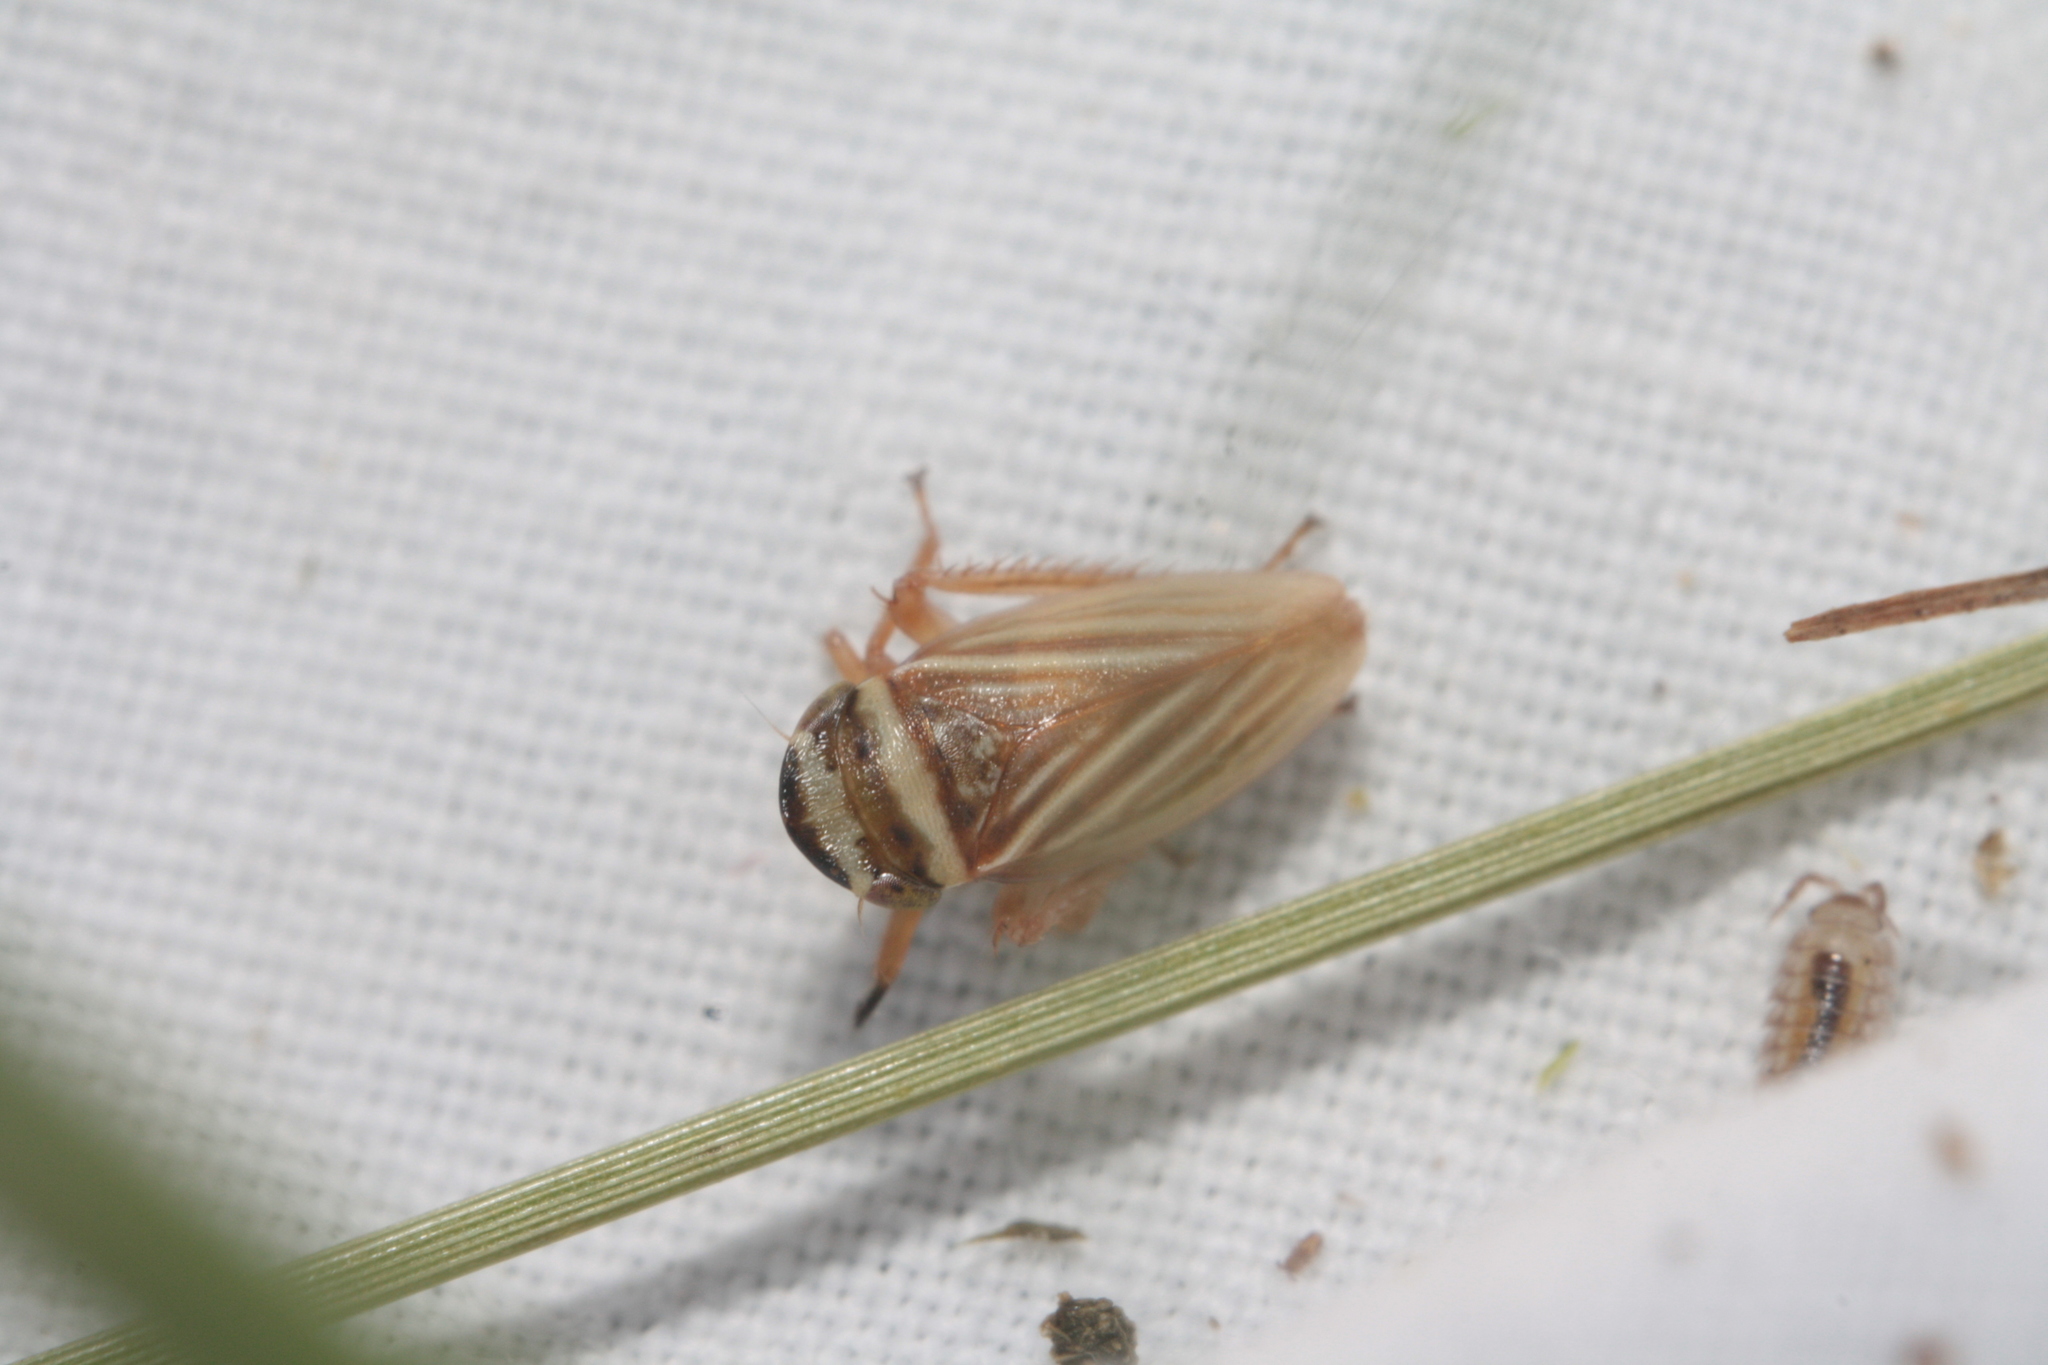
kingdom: Animalia
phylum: Arthropoda
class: Insecta
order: Hemiptera
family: Cicadellidae
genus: Aphrodes
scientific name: Aphrodes diminuta
